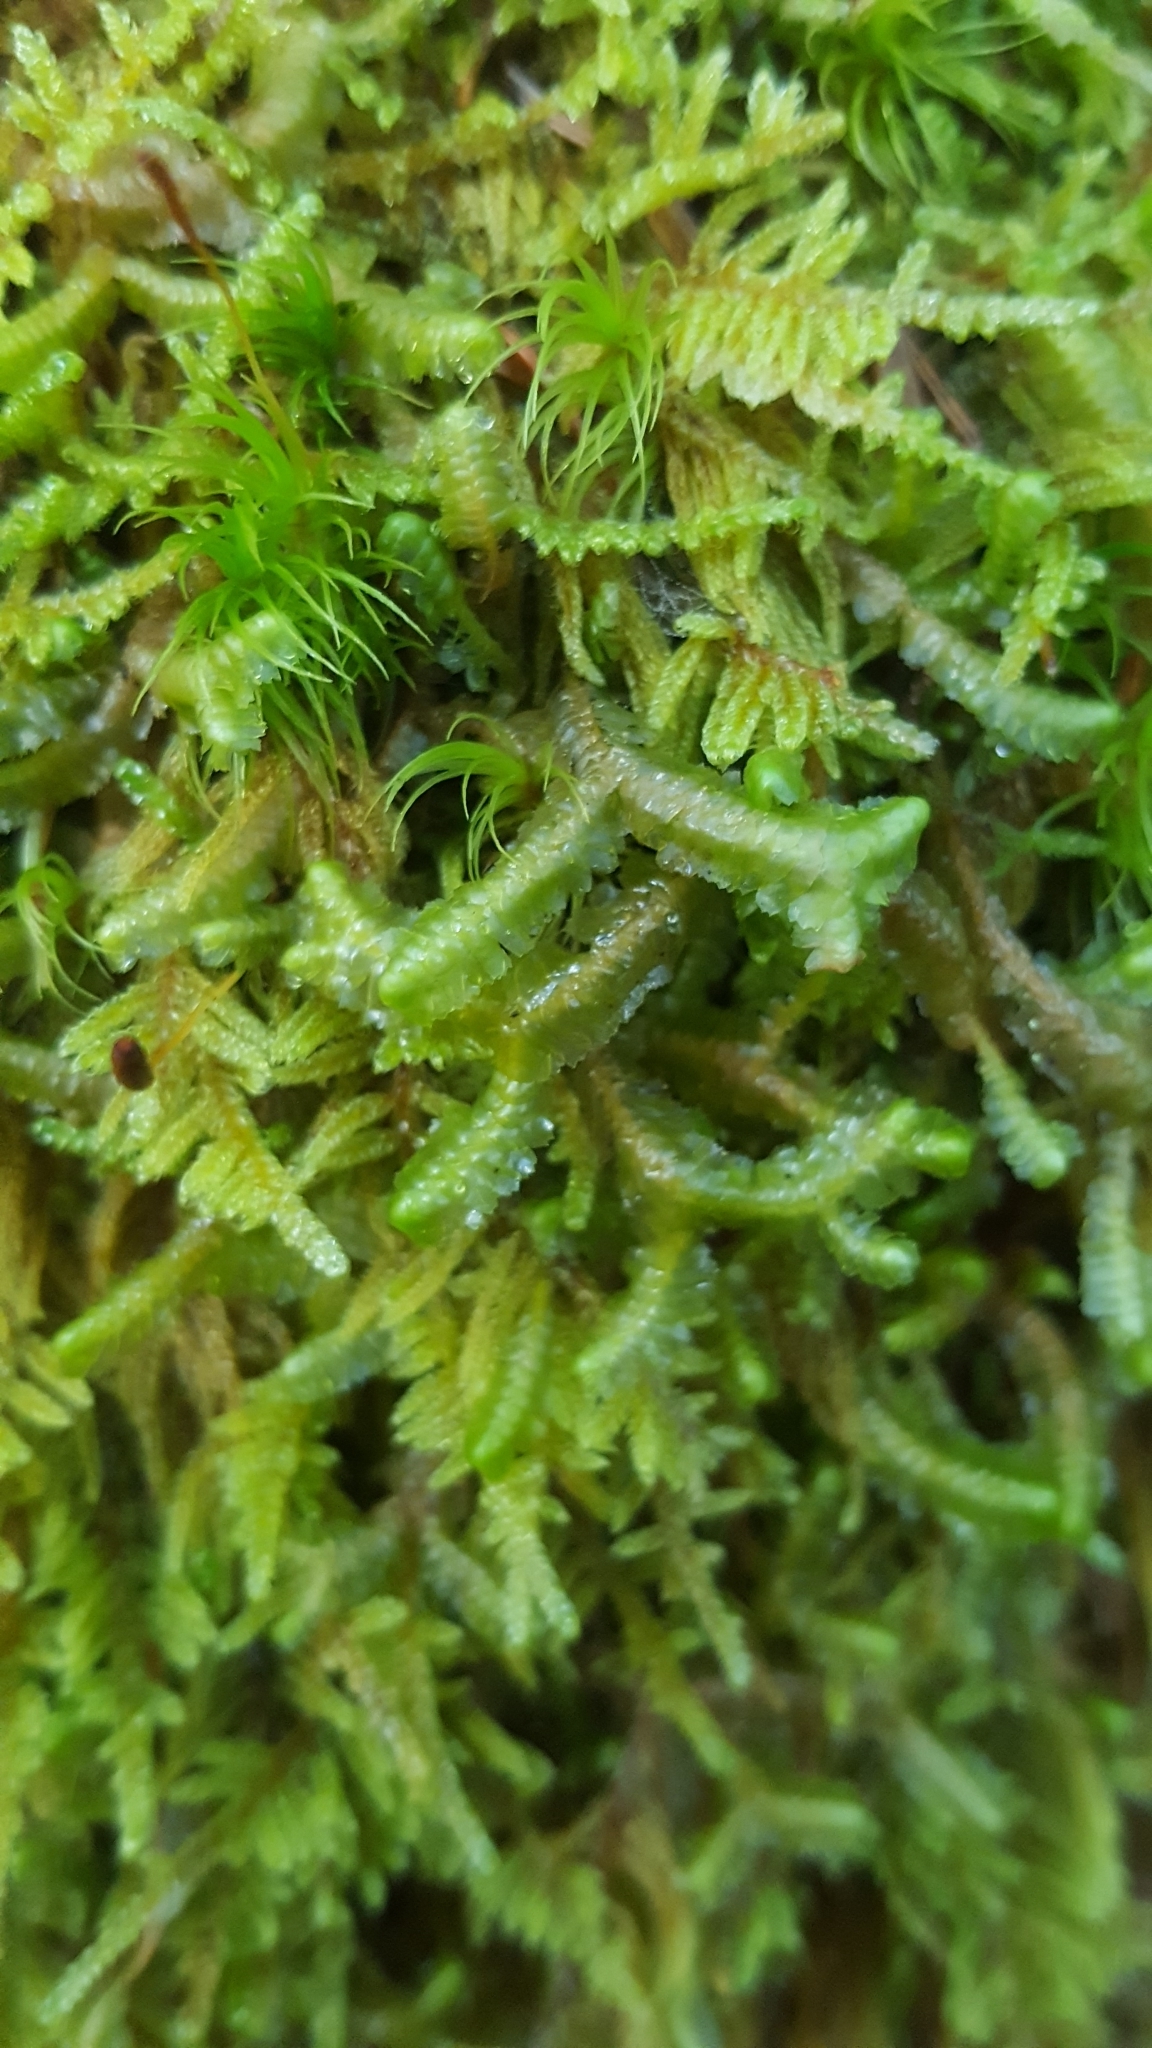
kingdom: Plantae
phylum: Marchantiophyta
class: Jungermanniopsida
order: Jungermanniales
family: Lepidoziaceae
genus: Bazzania
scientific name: Bazzania trilobata
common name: Three-lobed whipwort
